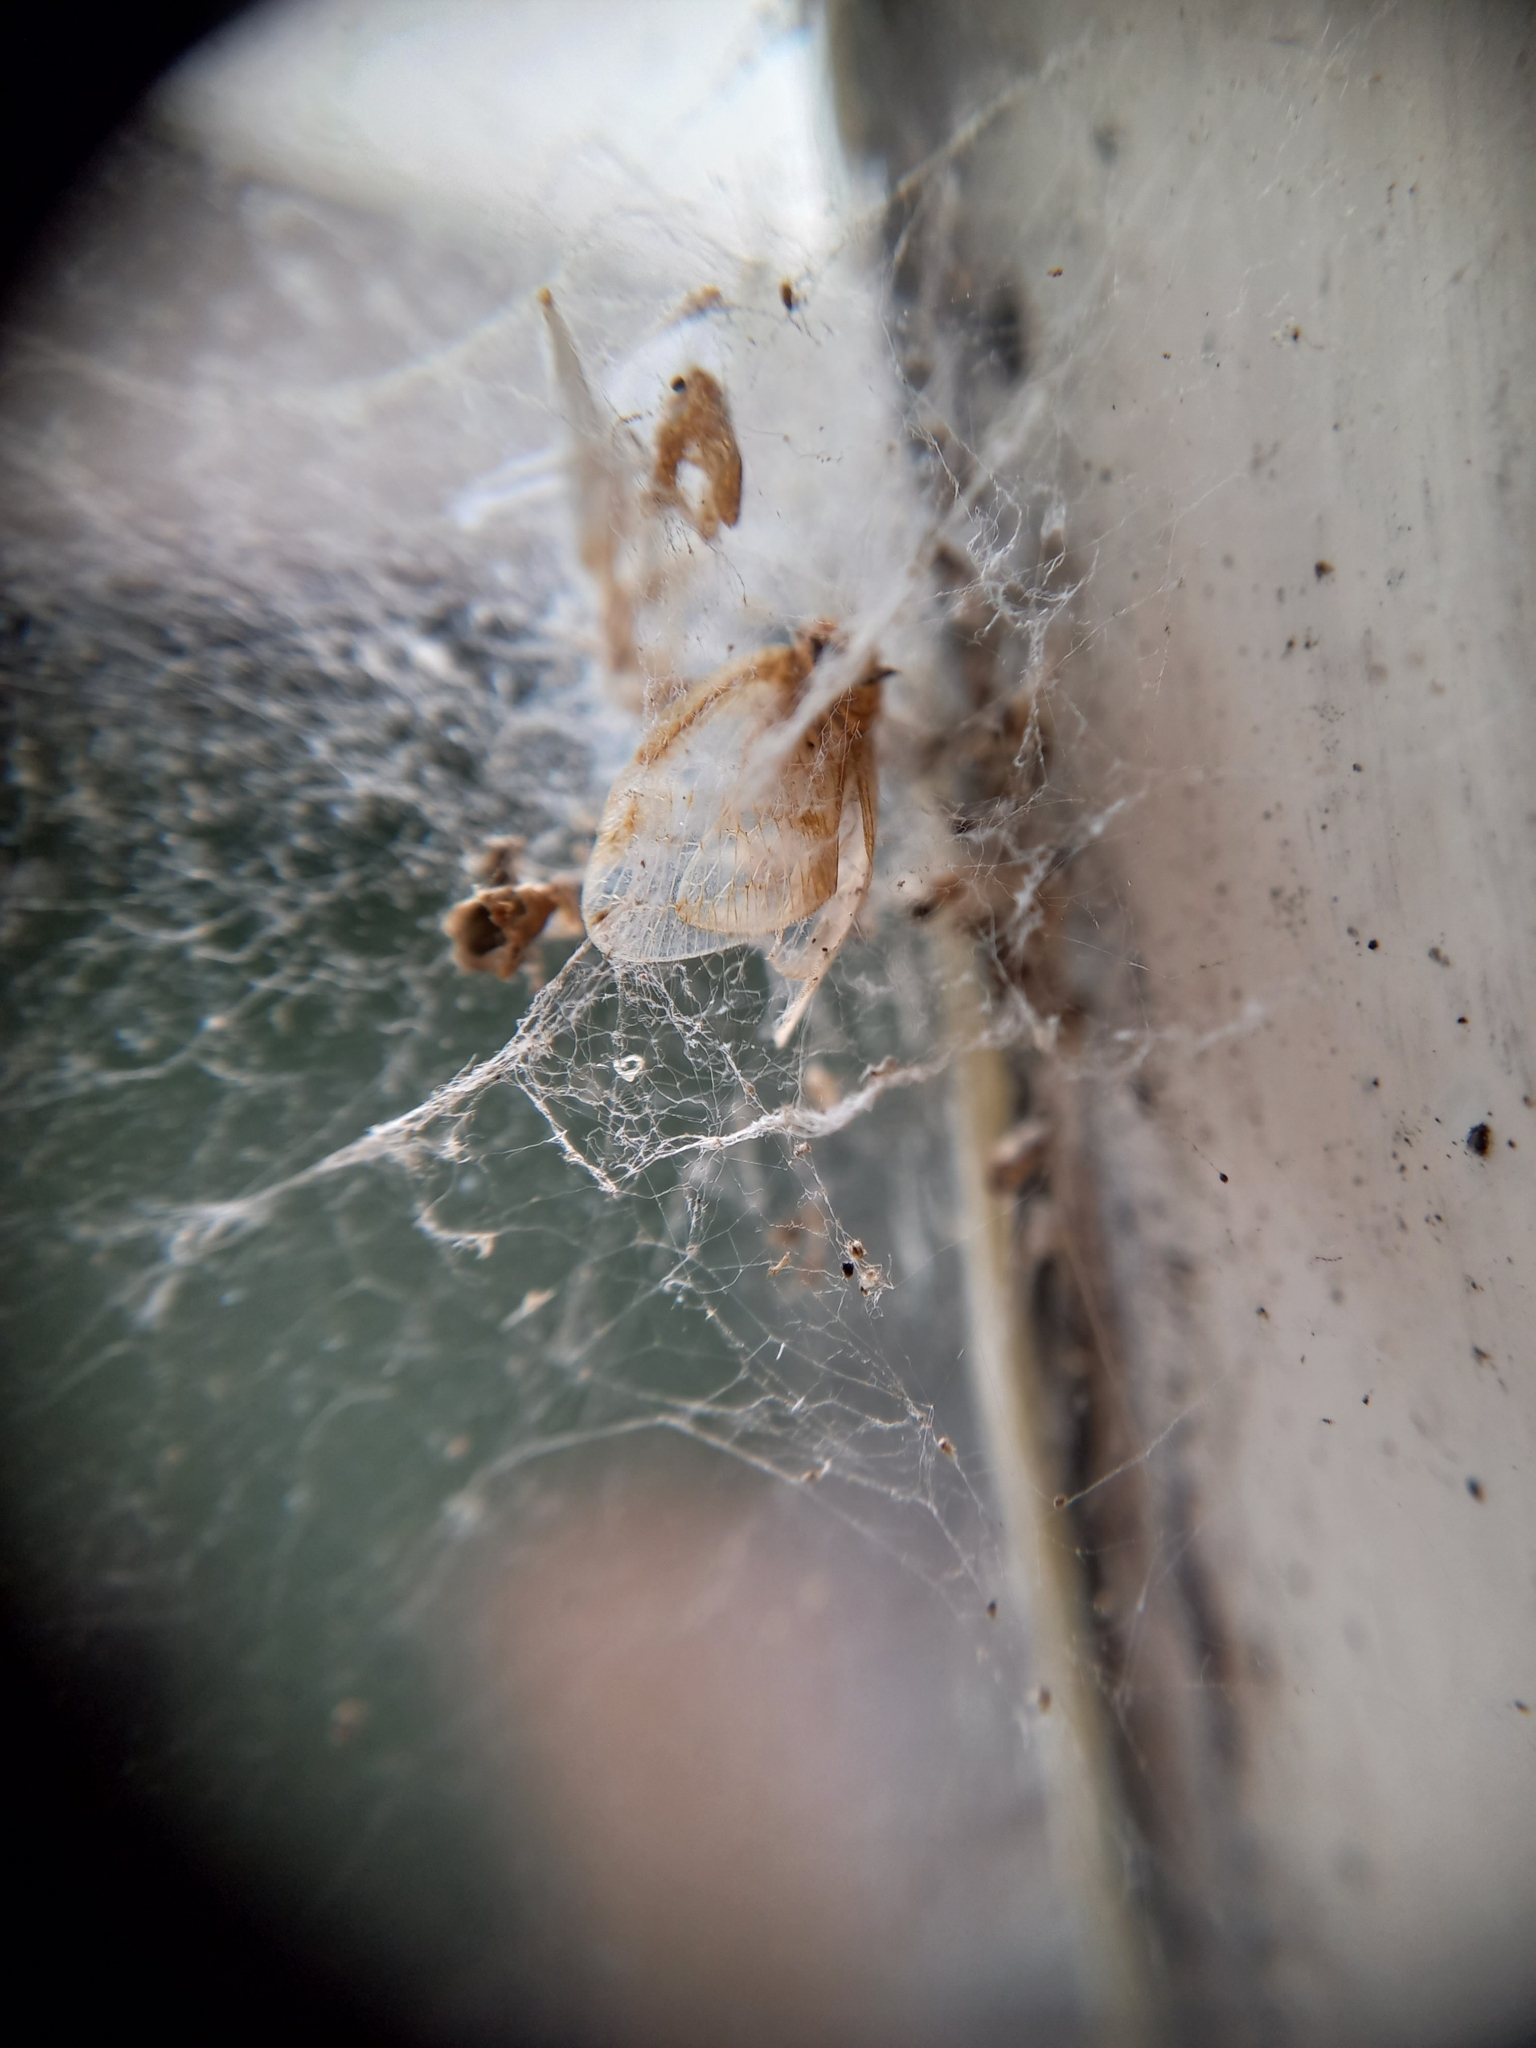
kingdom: Animalia
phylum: Arthropoda
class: Insecta
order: Hemiptera
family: Ricaniidae
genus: Scolypopa
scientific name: Scolypopa australis
